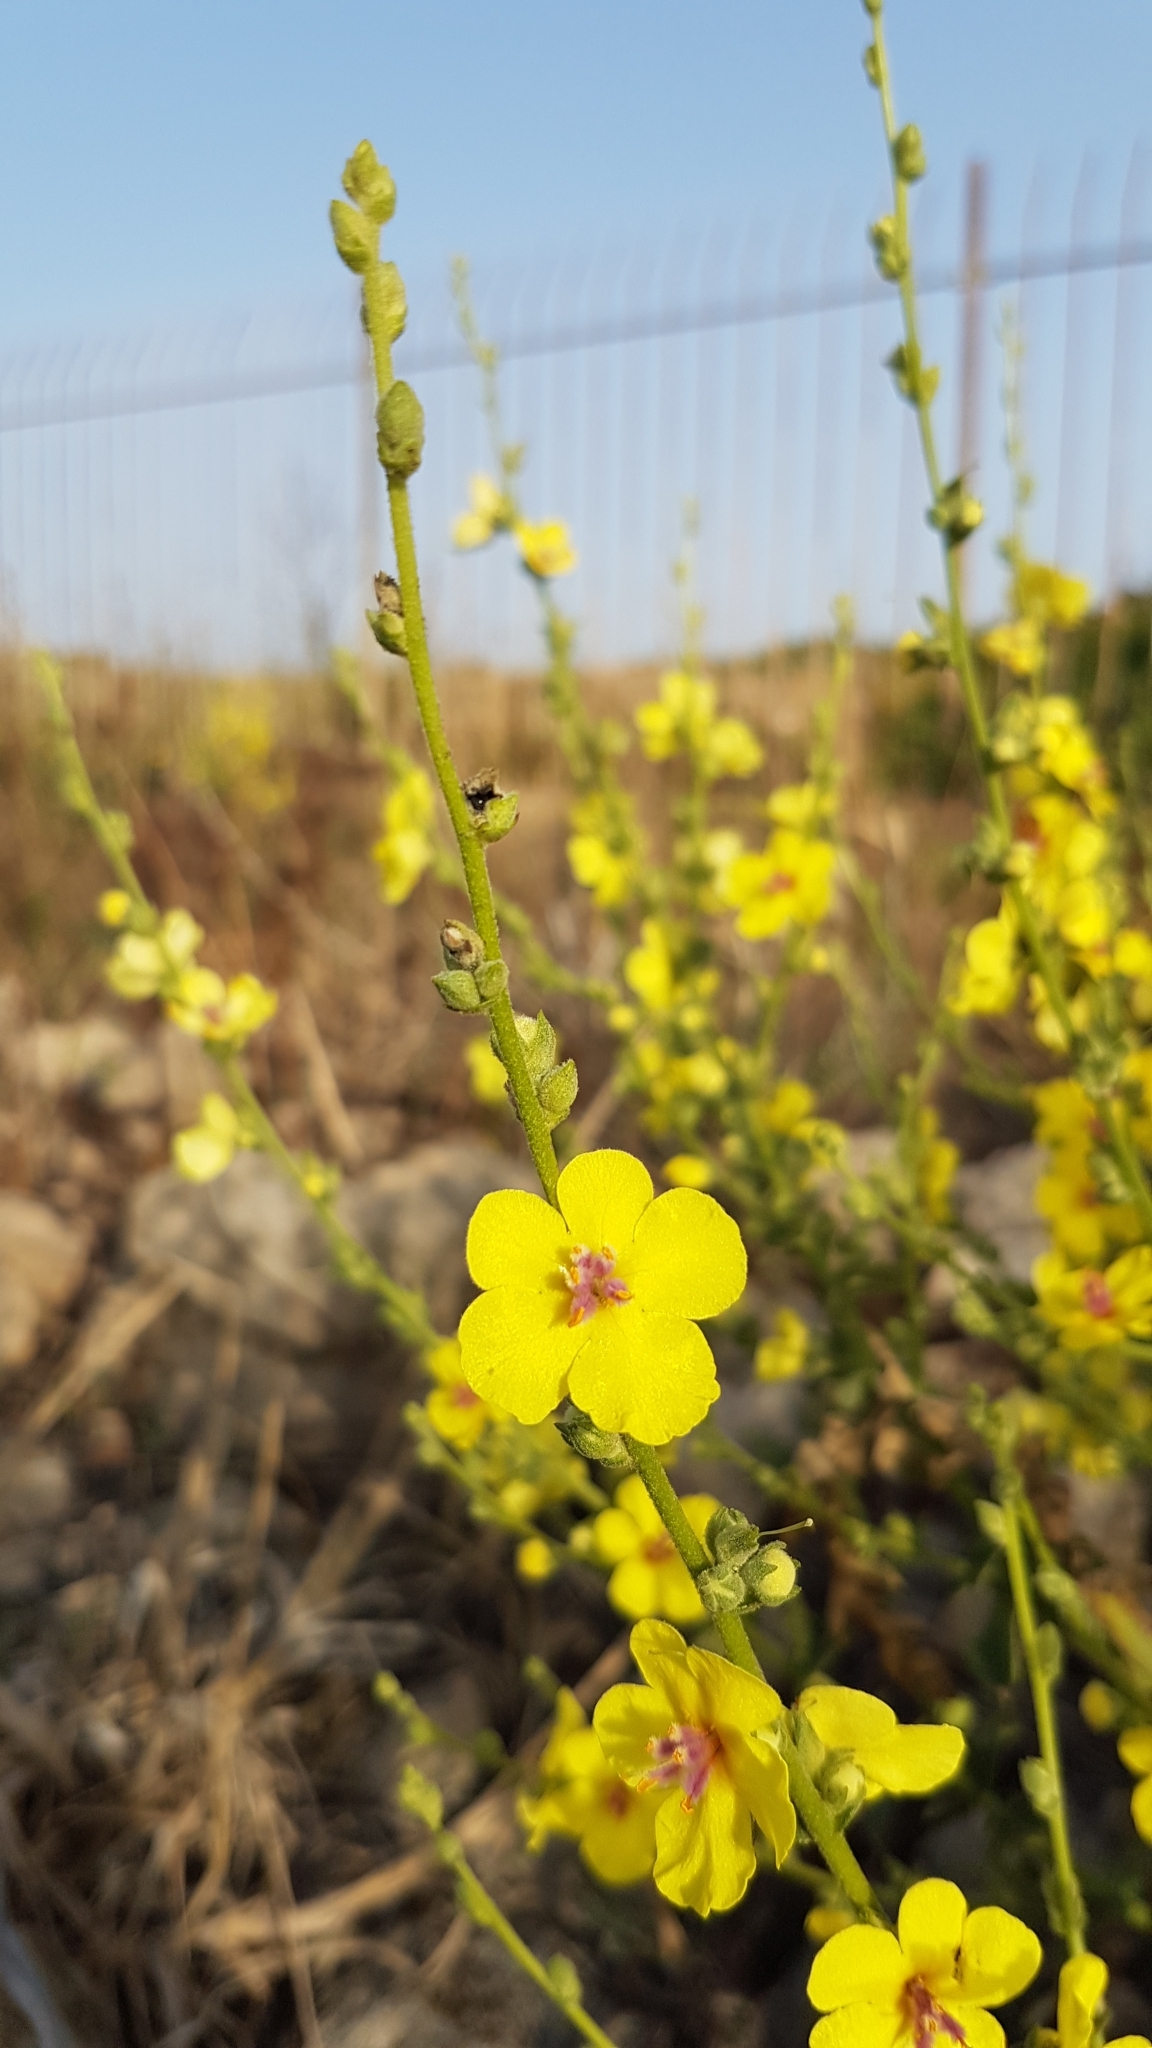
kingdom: Plantae
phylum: Tracheophyta
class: Magnoliopsida
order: Lamiales
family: Scrophulariaceae
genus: Verbascum
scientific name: Verbascum sinuatum
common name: Wavyleaf mullein
